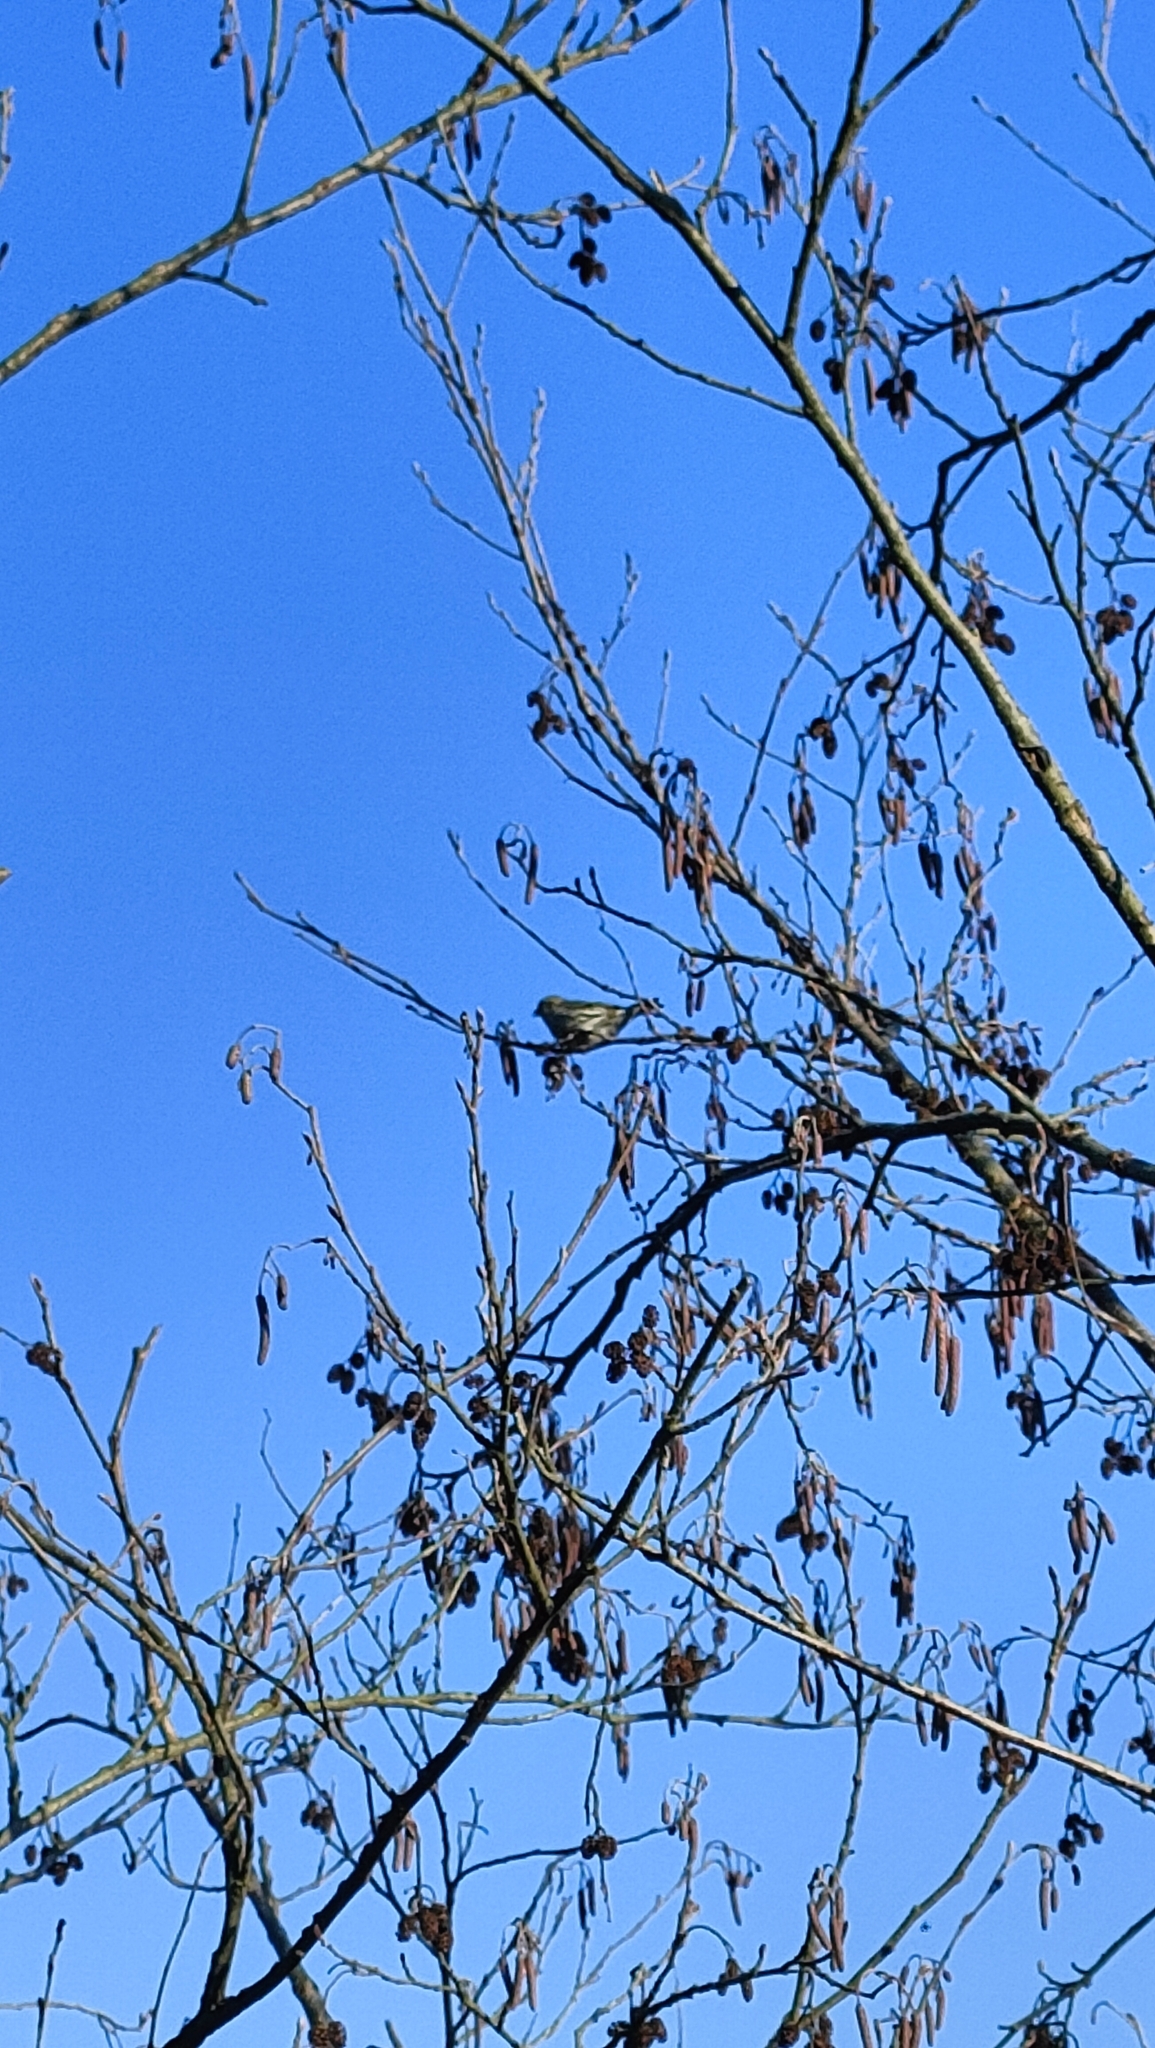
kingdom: Animalia
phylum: Chordata
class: Aves
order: Passeriformes
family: Fringillidae
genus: Spinus
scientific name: Spinus spinus
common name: Eurasian siskin
